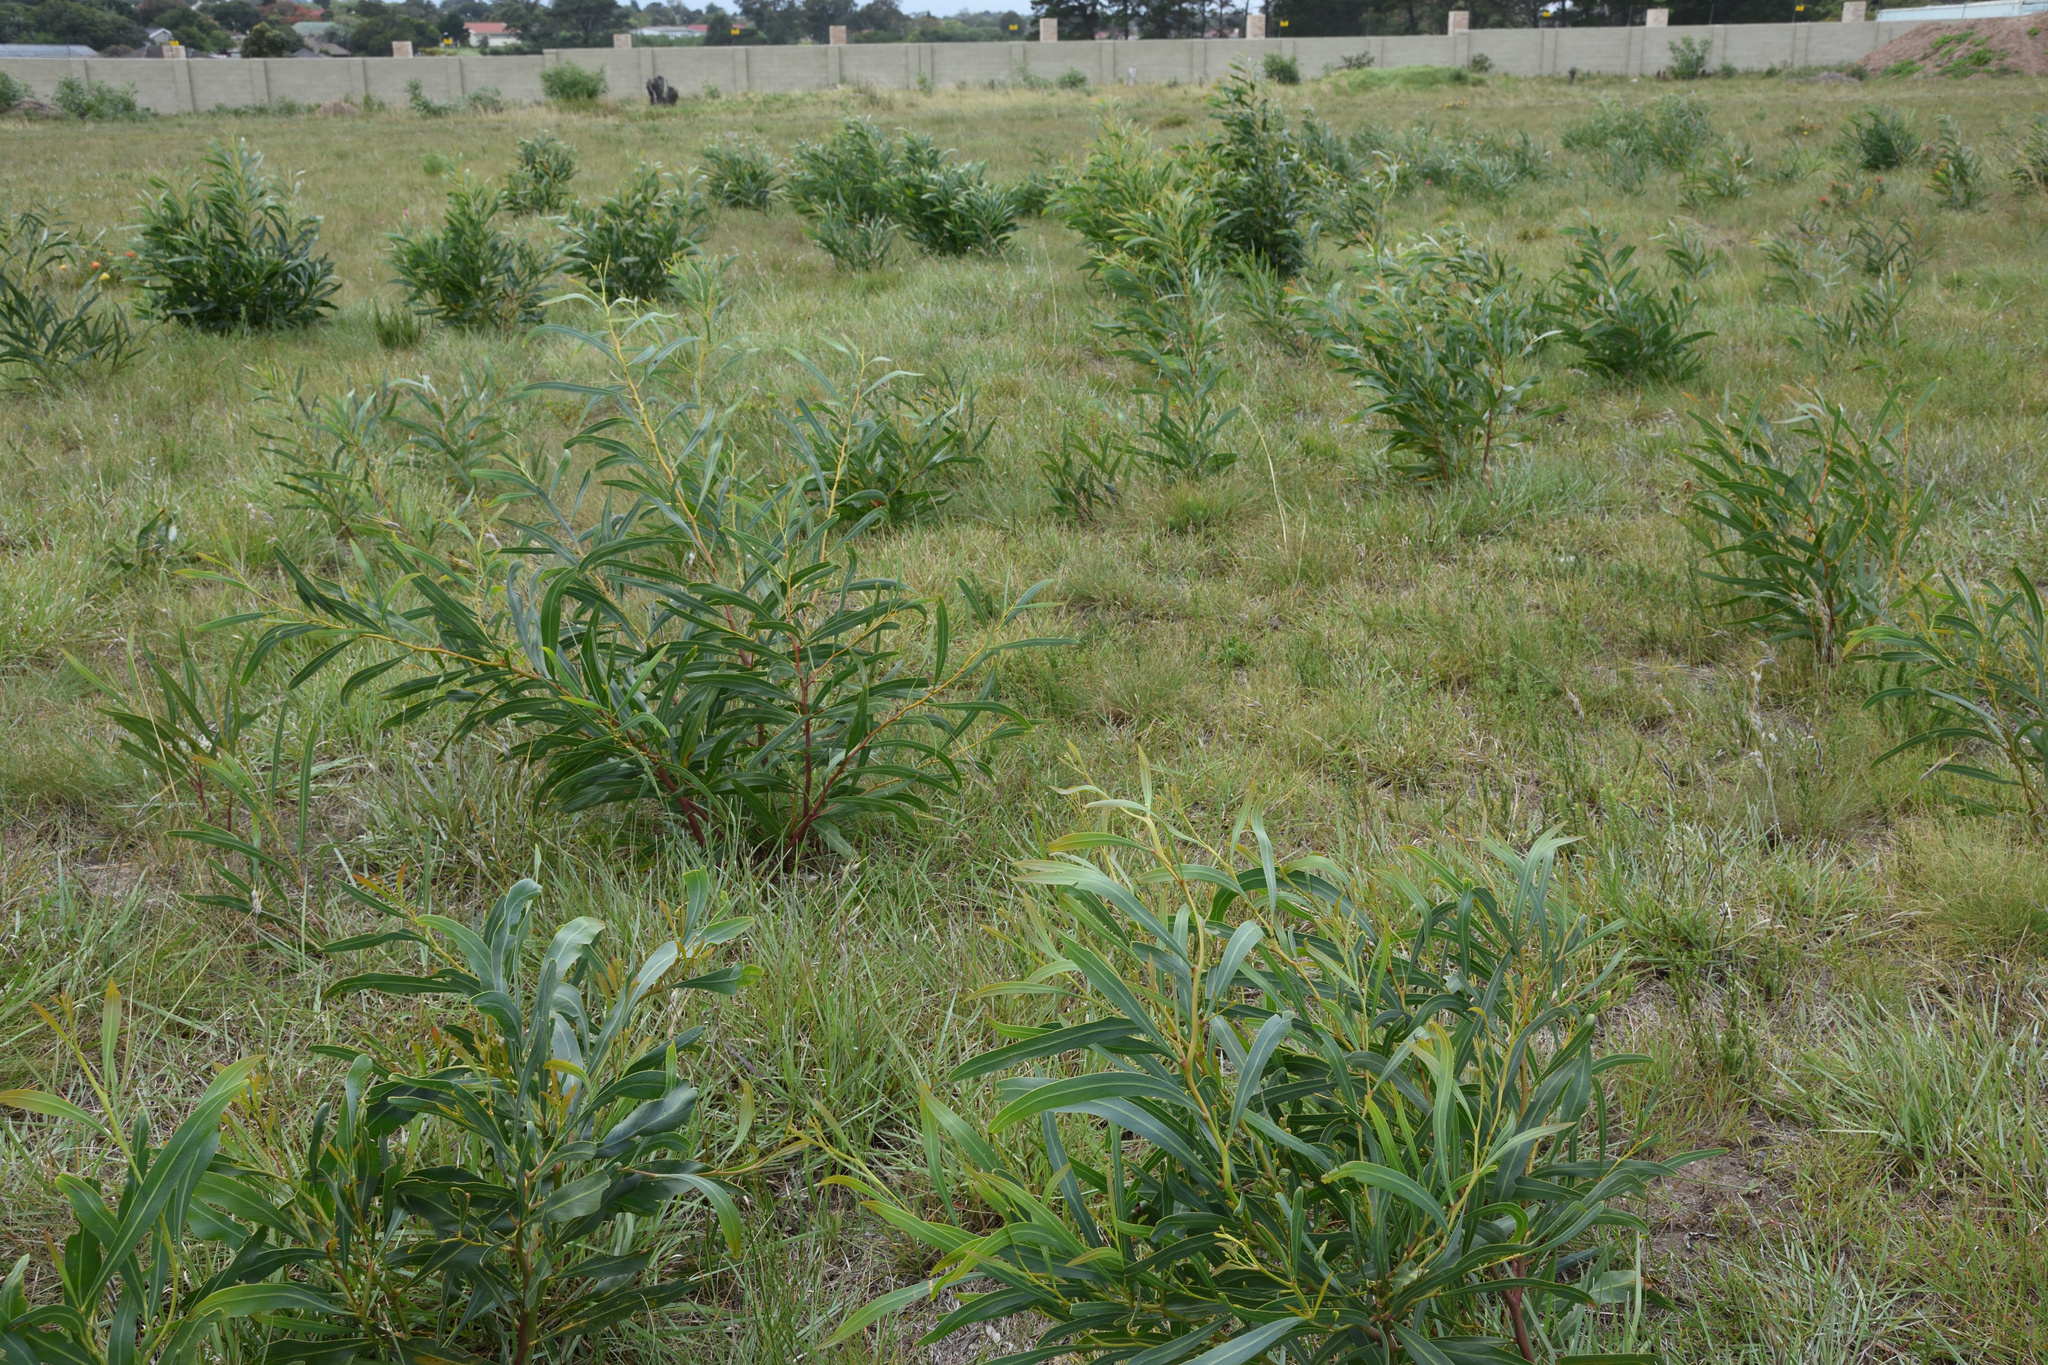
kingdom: Plantae
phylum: Tracheophyta
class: Magnoliopsida
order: Fabales
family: Fabaceae
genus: Acacia
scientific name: Acacia saligna
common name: Orange wattle
